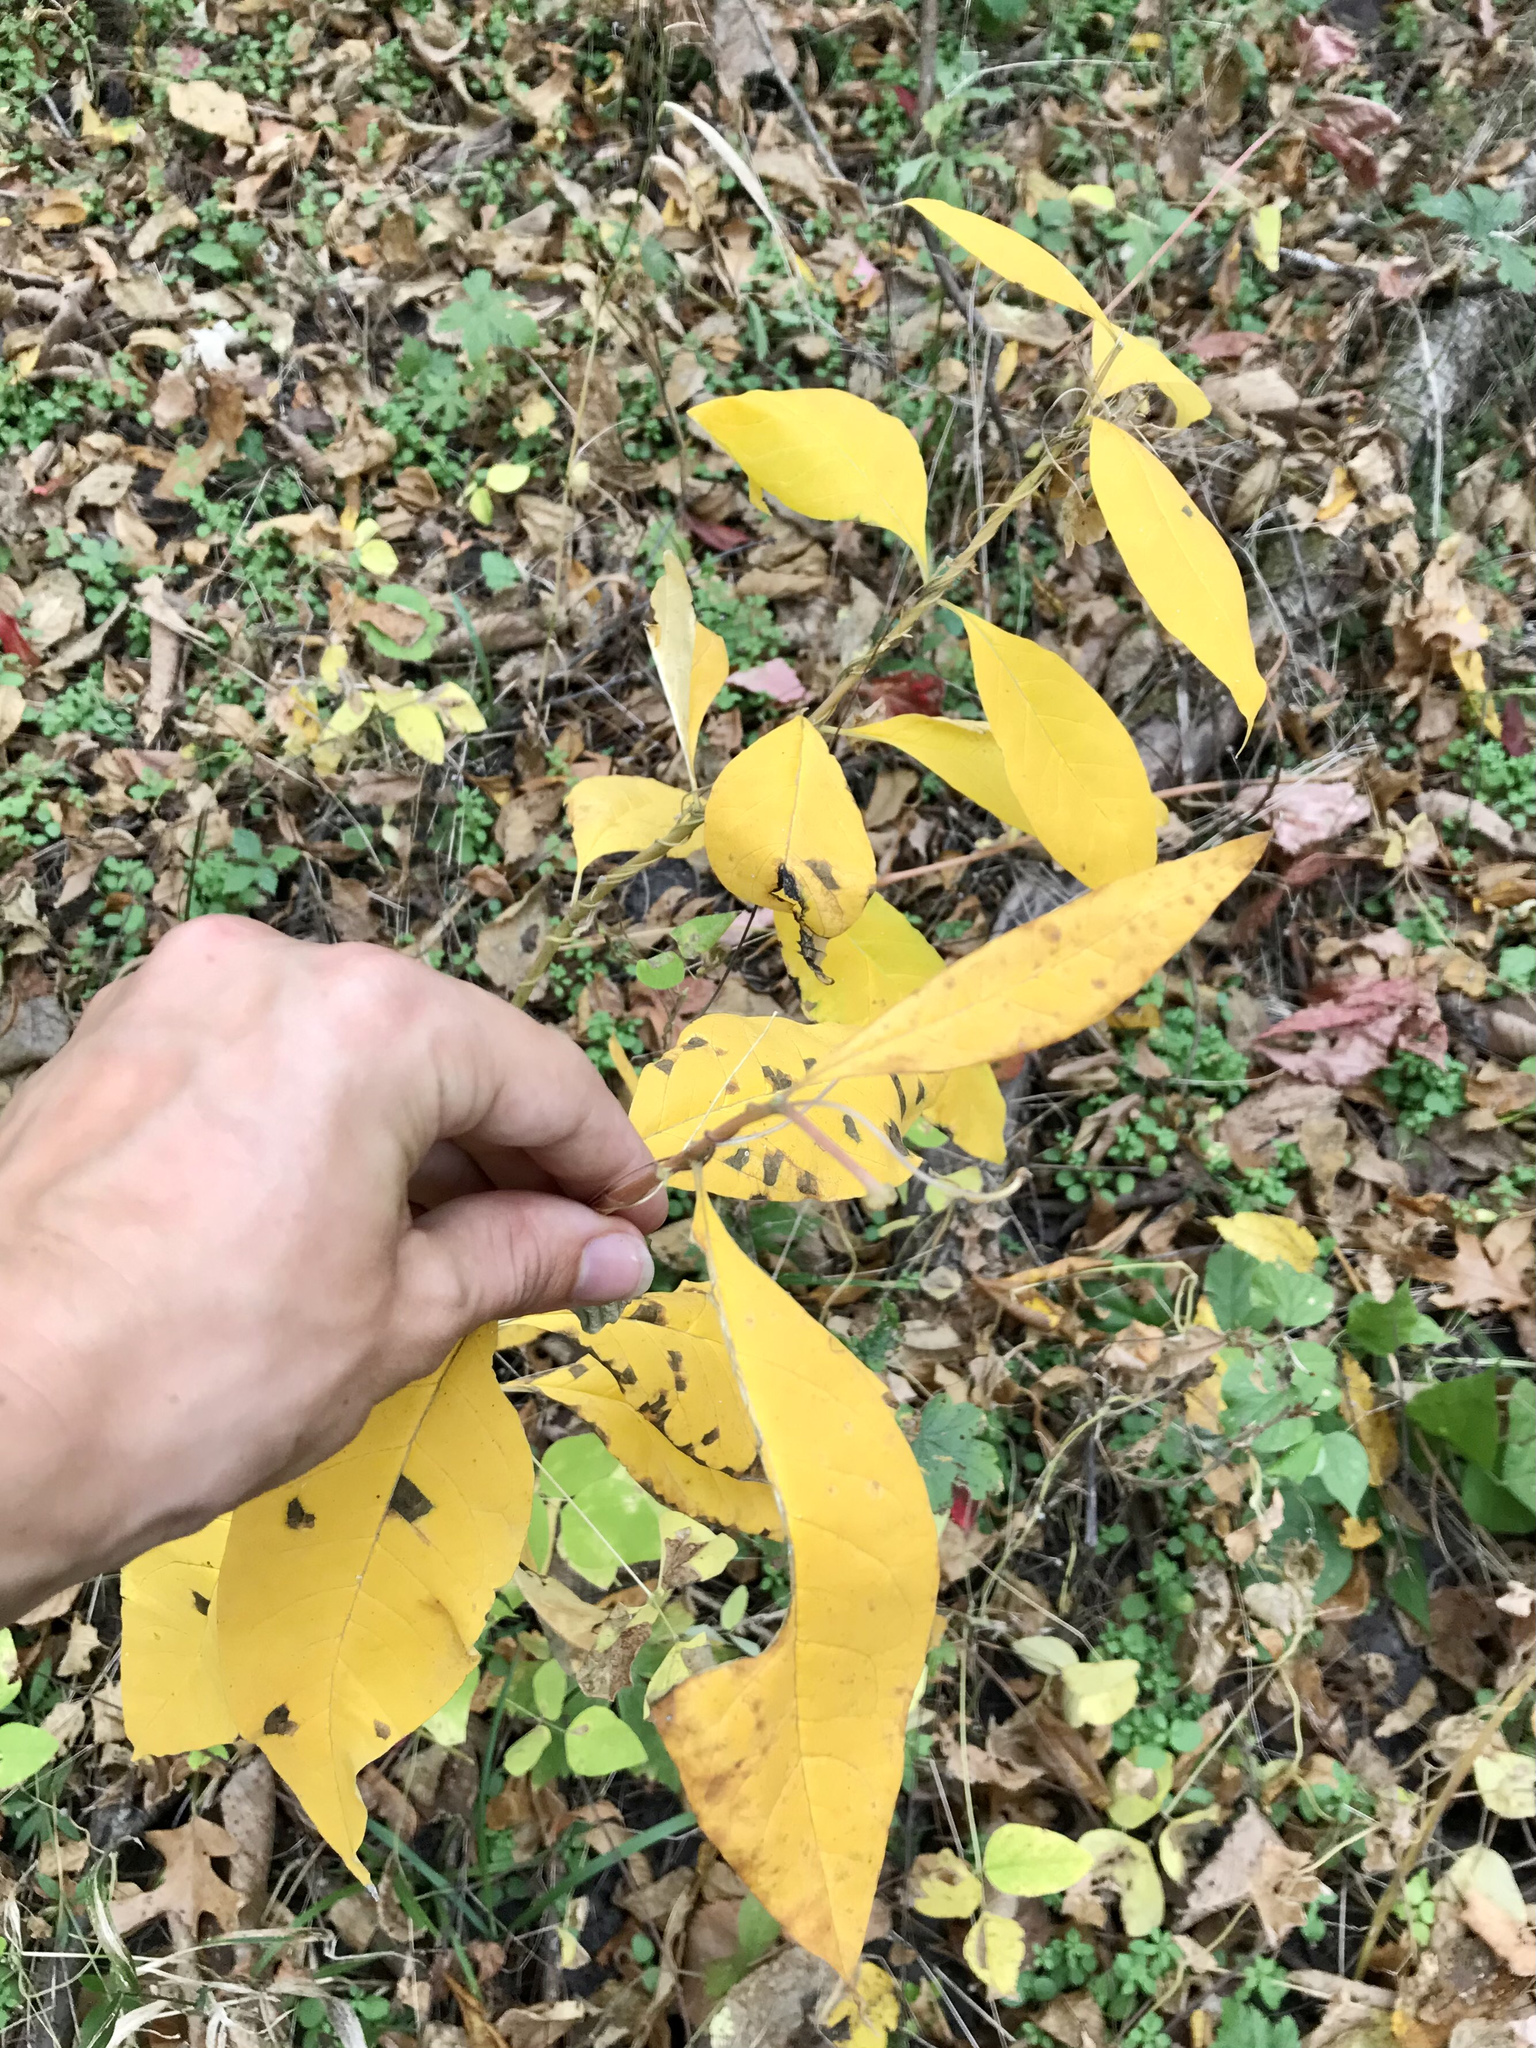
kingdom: Plantae
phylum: Tracheophyta
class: Magnoliopsida
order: Gentianales
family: Apocynaceae
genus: Asclepias
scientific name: Asclepias exaltata
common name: Poke milkweed
